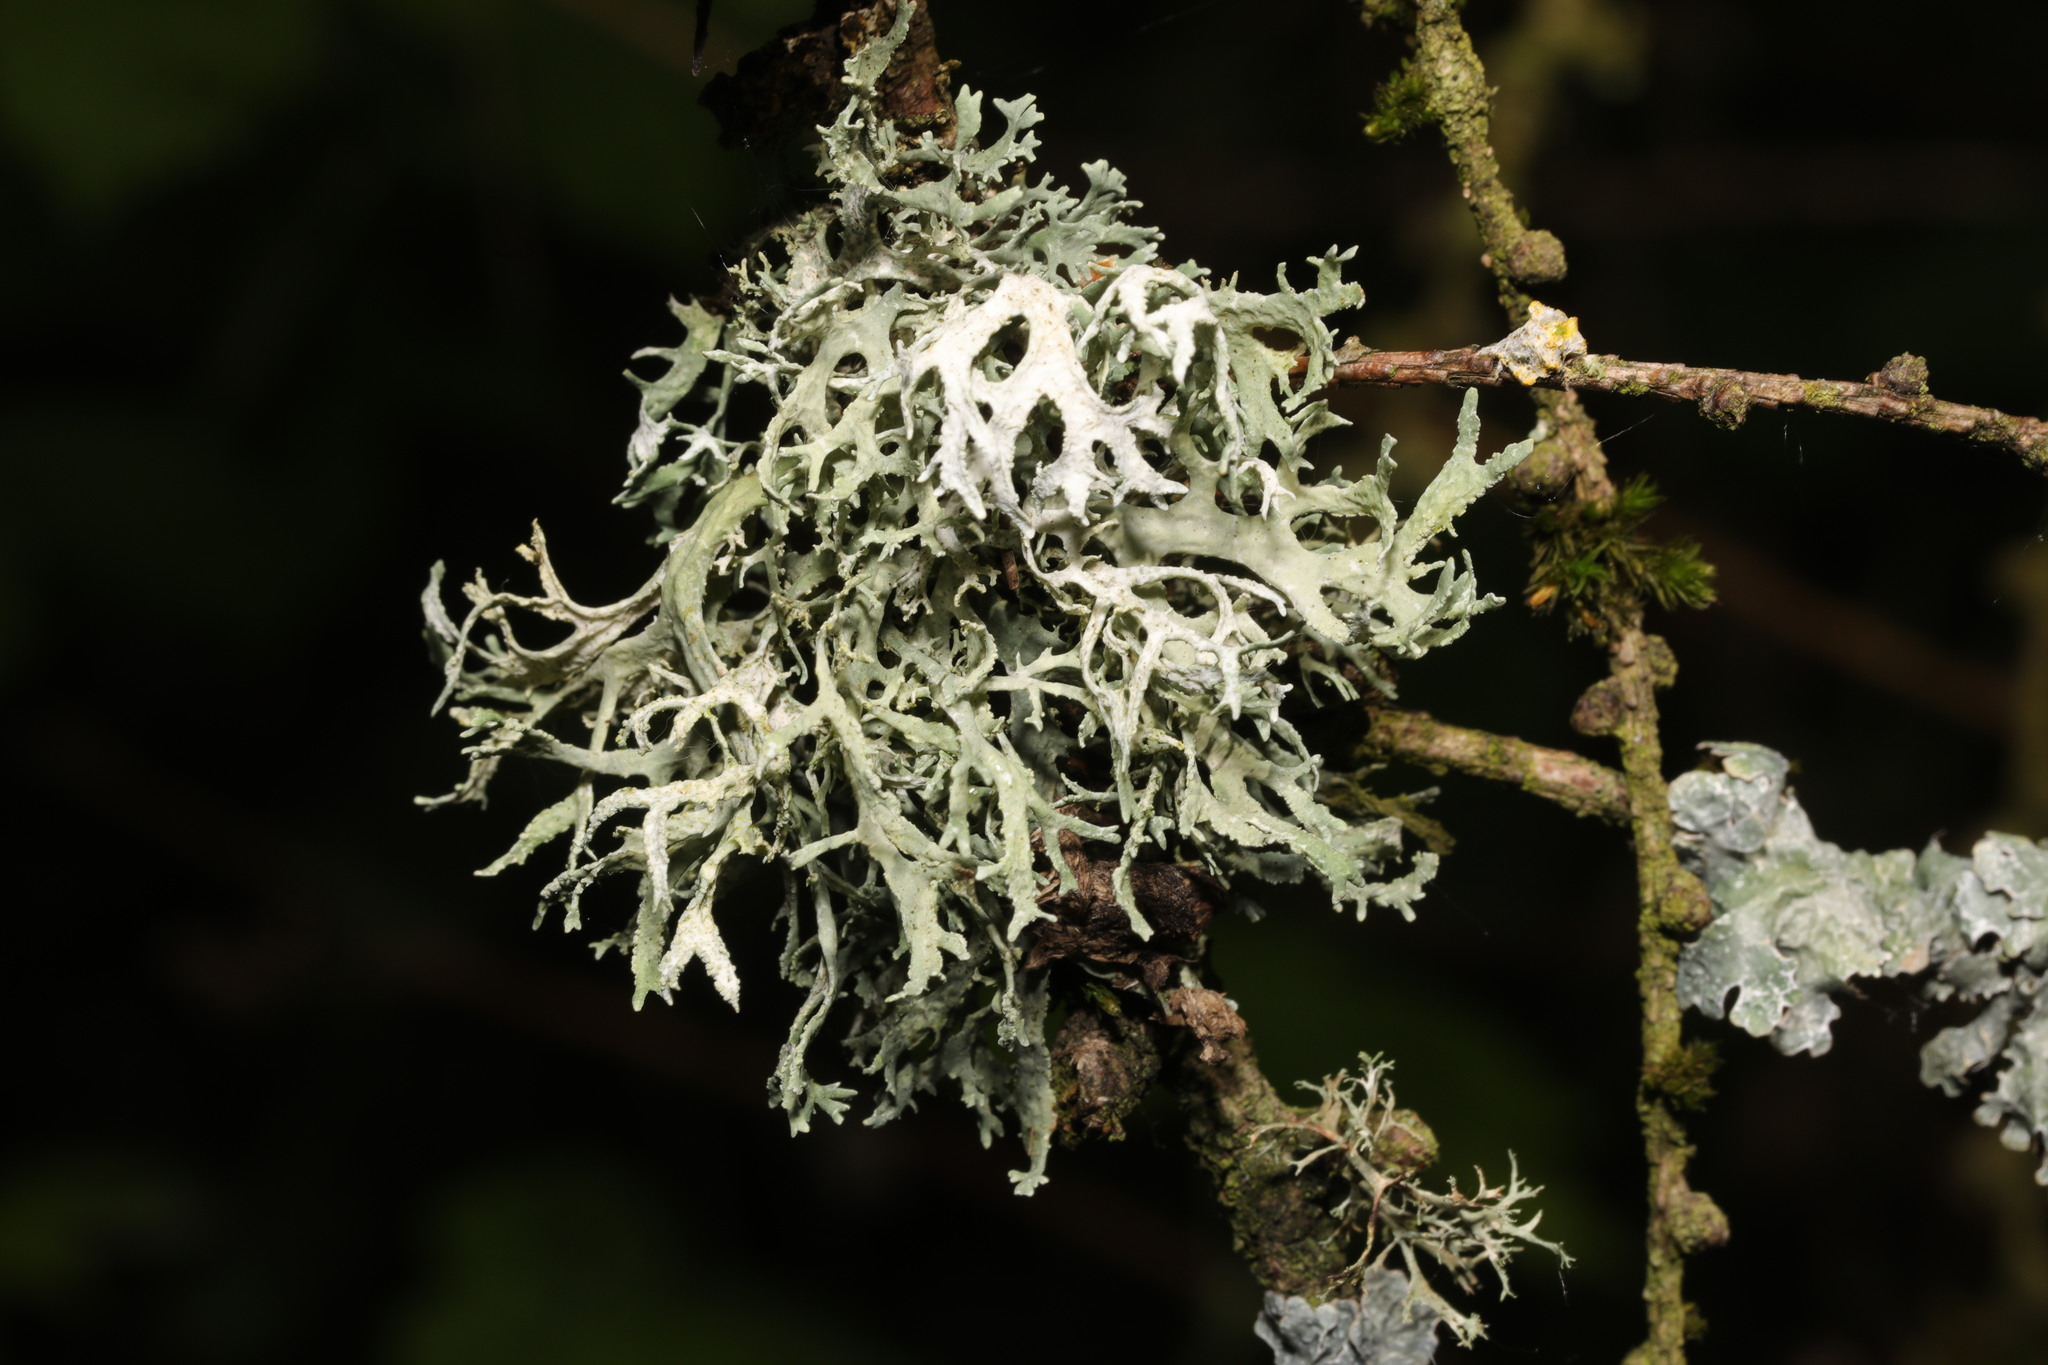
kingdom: Fungi
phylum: Ascomycota
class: Lecanoromycetes
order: Lecanorales
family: Parmeliaceae
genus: Evernia
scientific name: Evernia prunastri
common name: Oak moss
